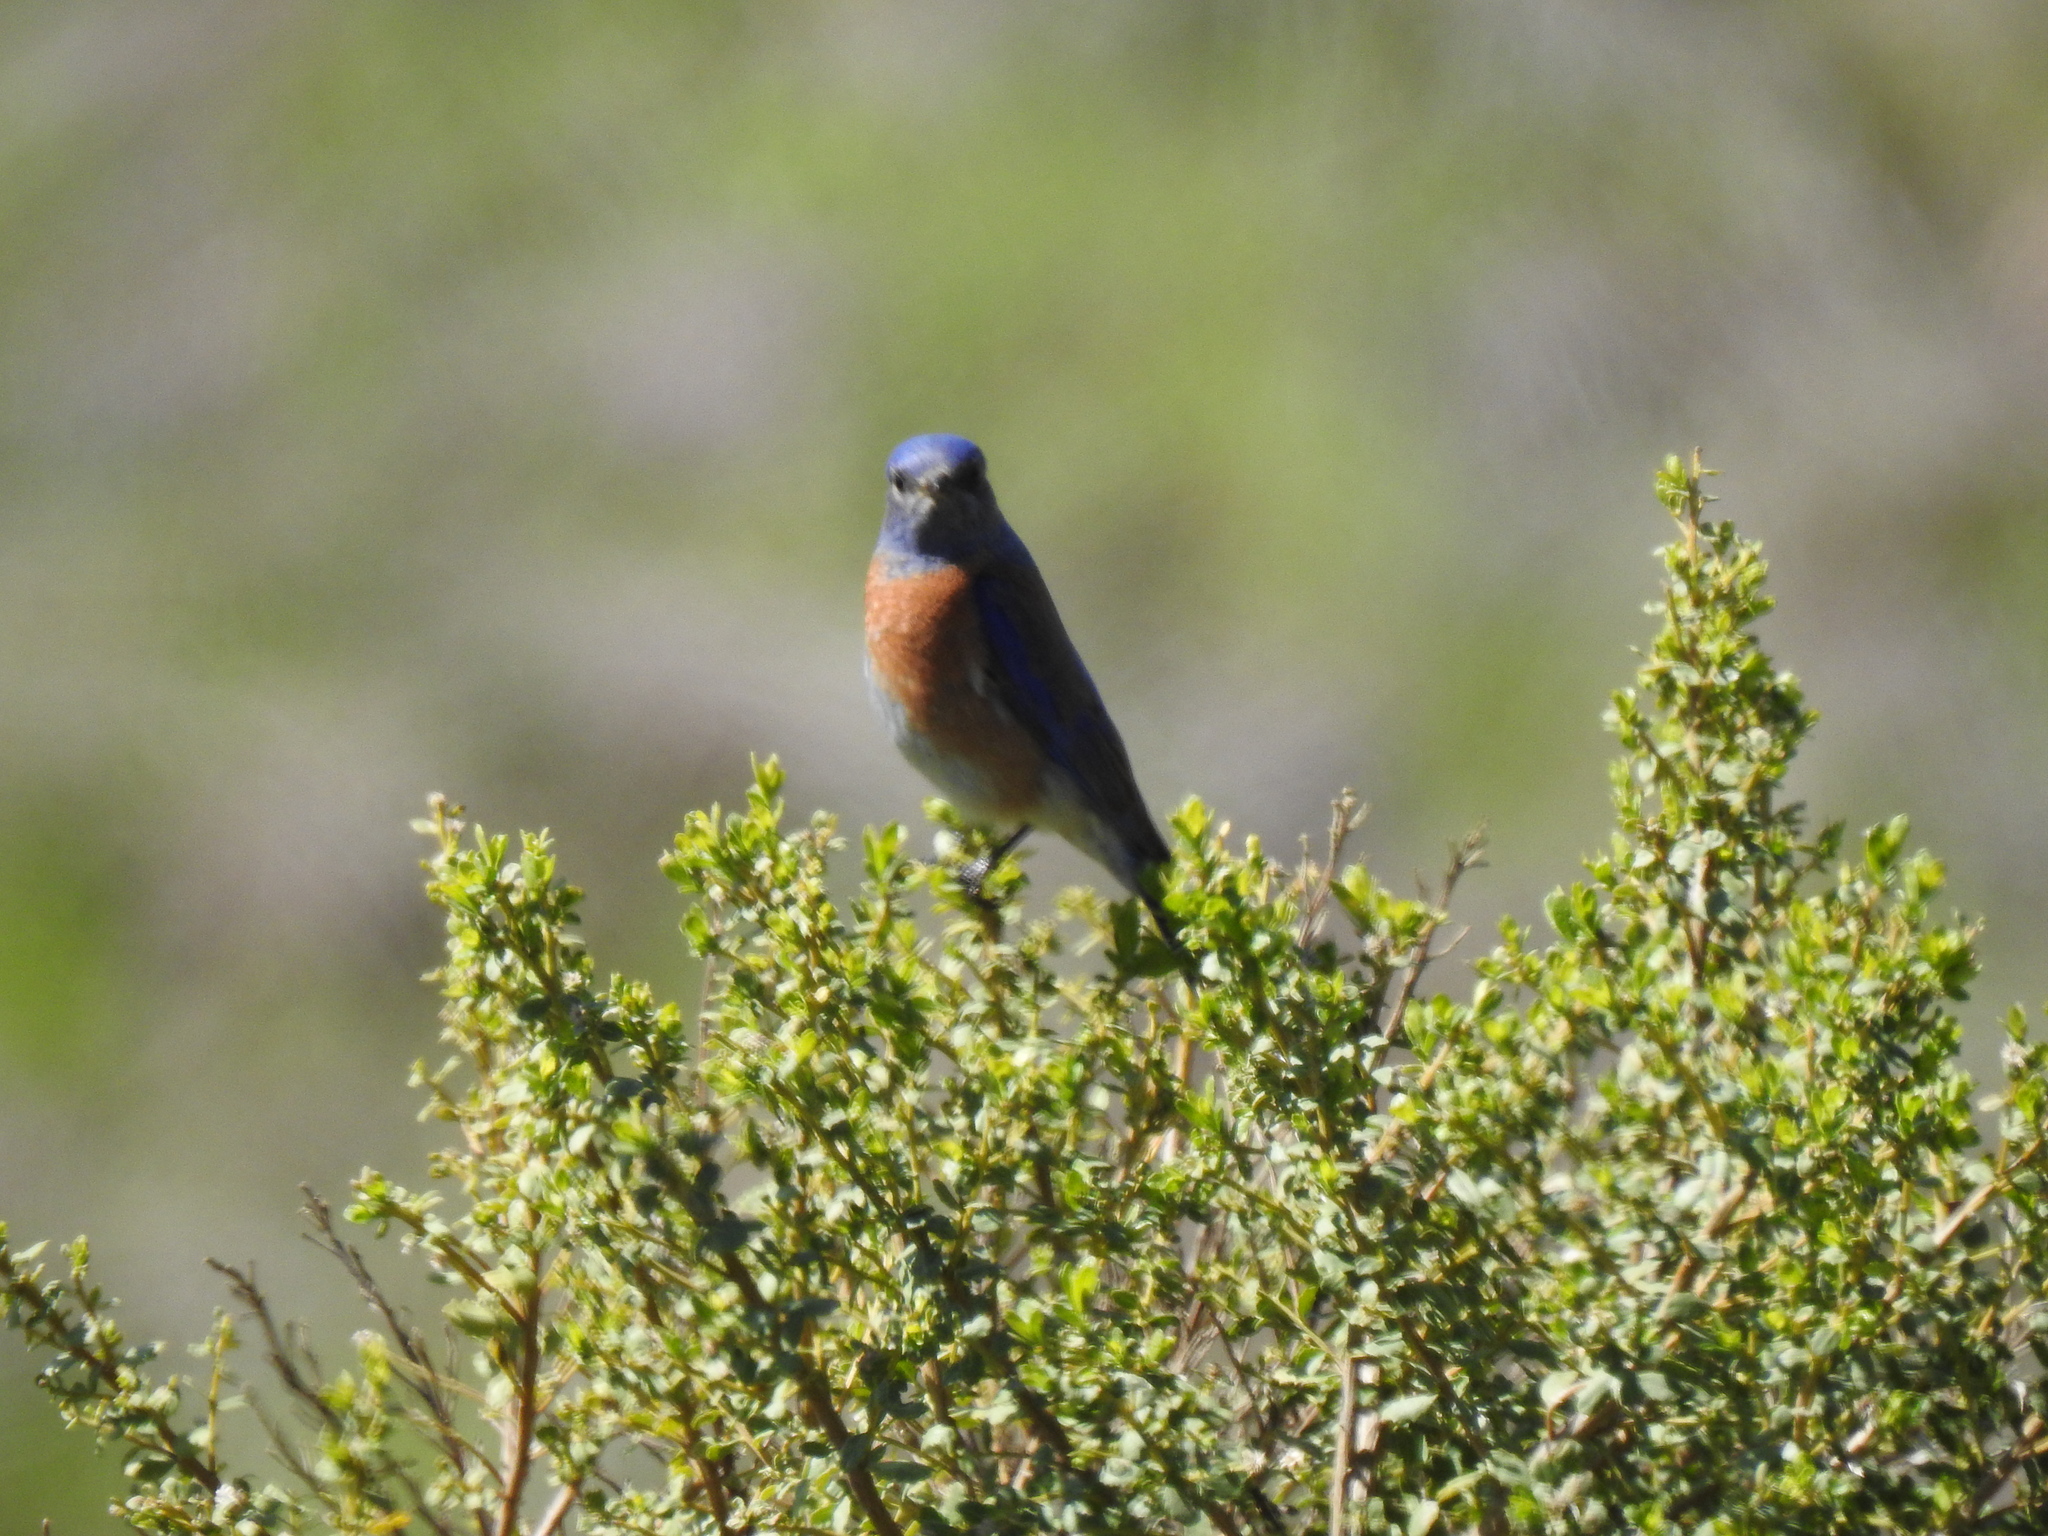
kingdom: Animalia
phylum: Chordata
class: Aves
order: Passeriformes
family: Turdidae
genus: Sialia
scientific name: Sialia mexicana
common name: Western bluebird
